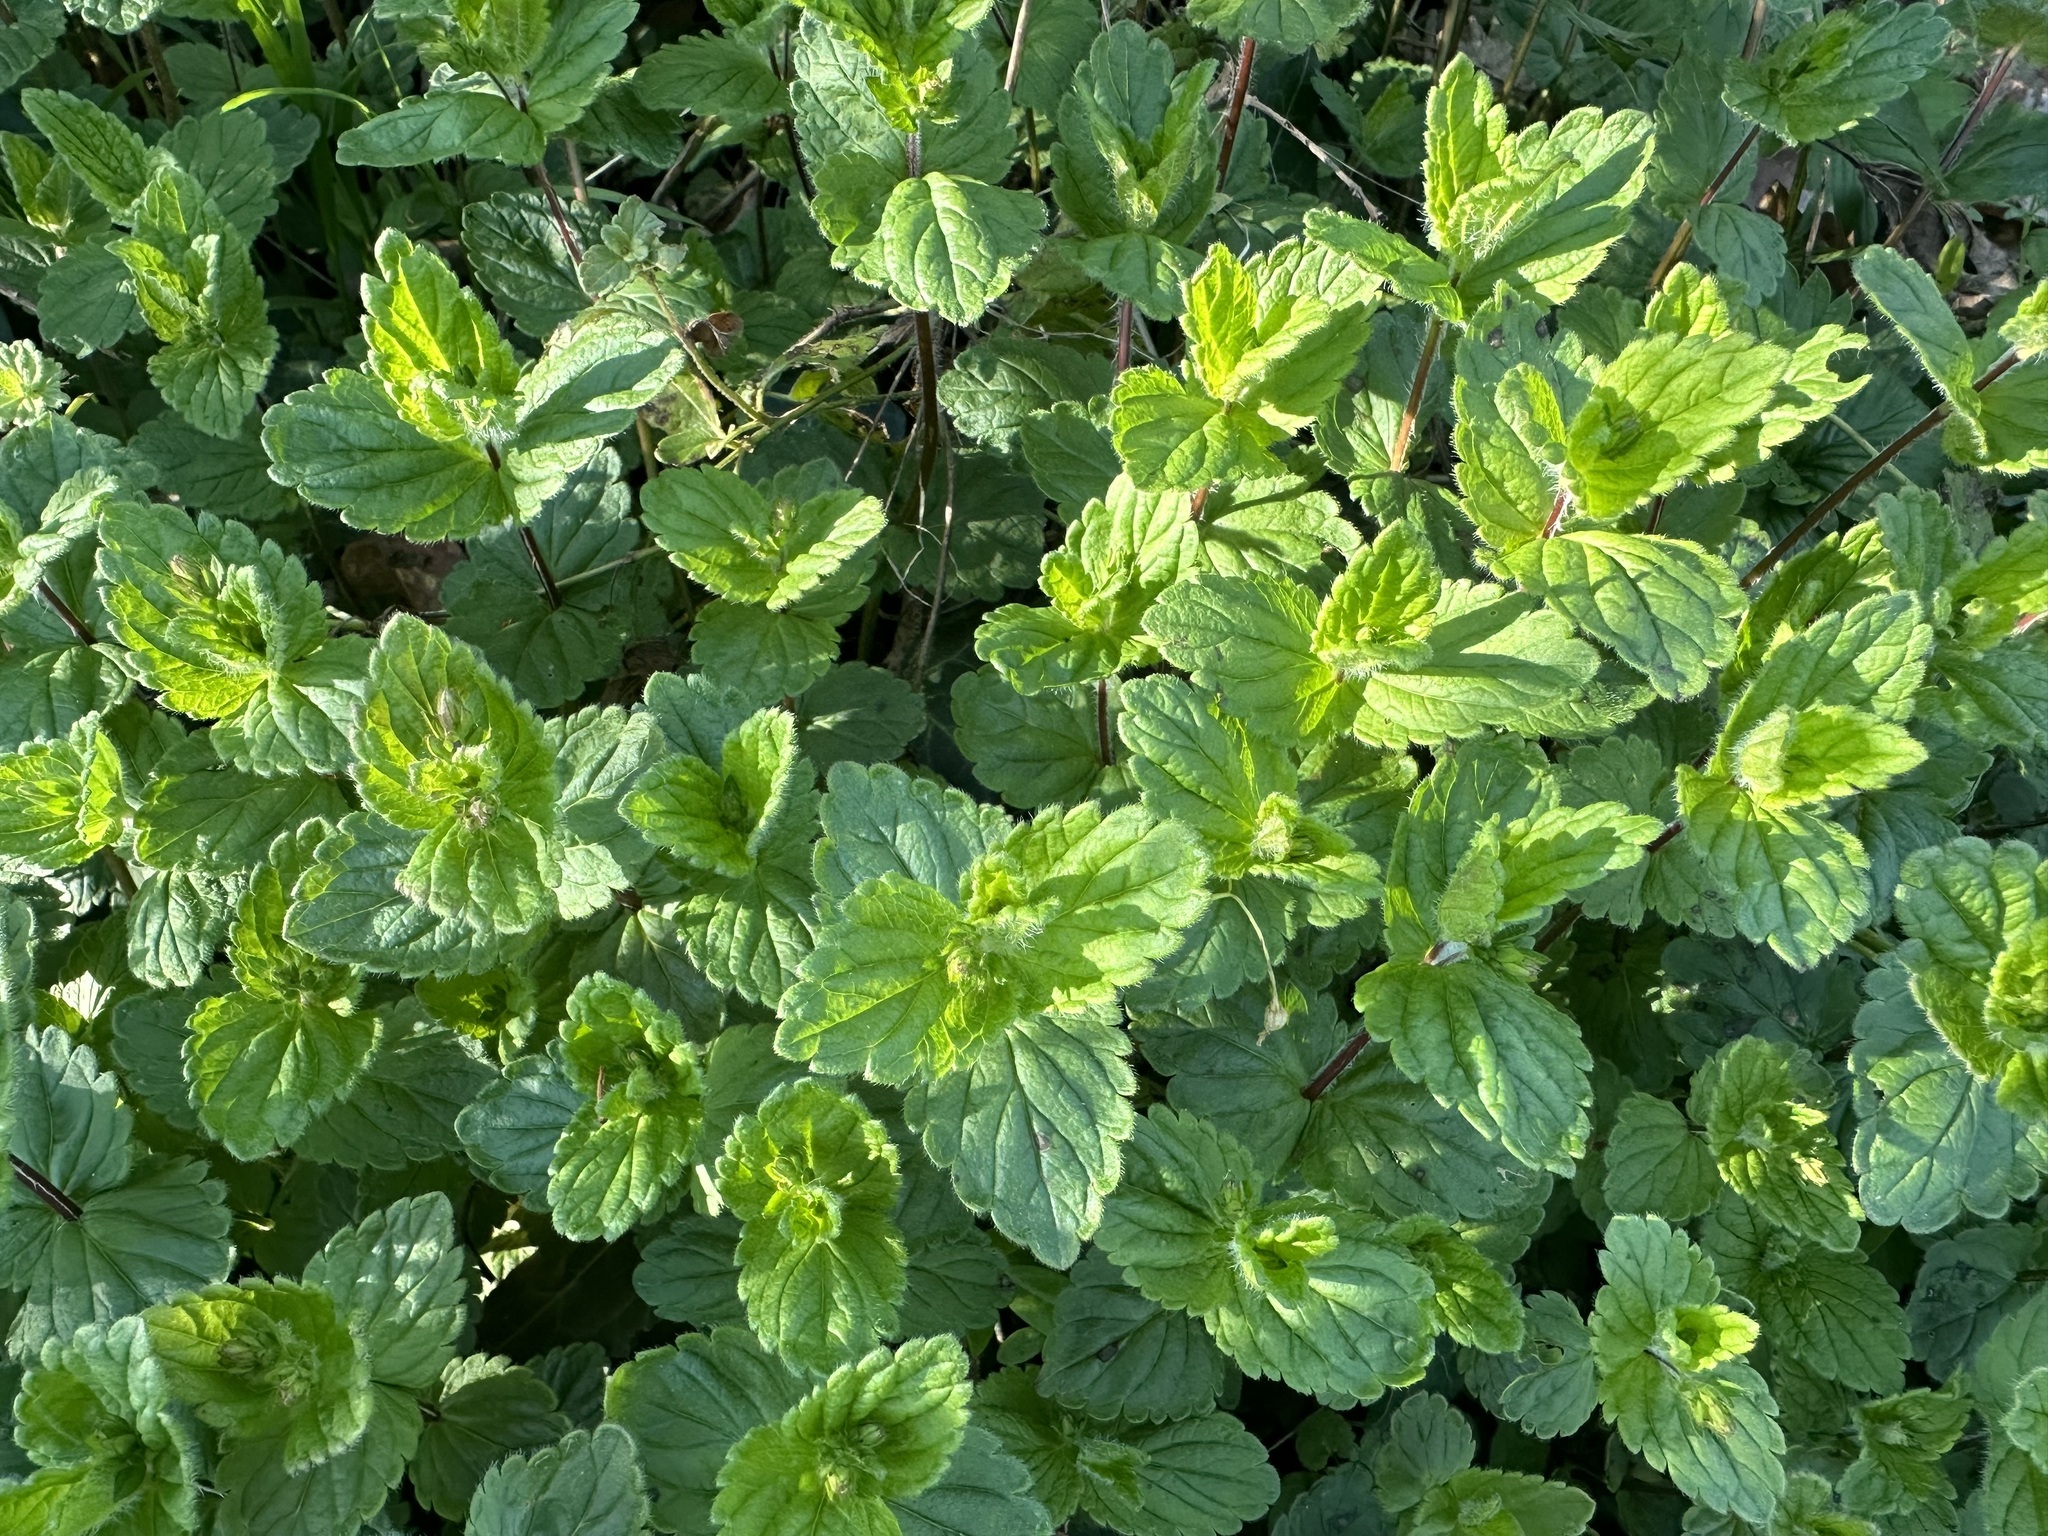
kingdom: Plantae
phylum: Tracheophyta
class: Magnoliopsida
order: Lamiales
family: Plantaginaceae
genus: Veronica
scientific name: Veronica chamaedrys
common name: Germander speedwell
